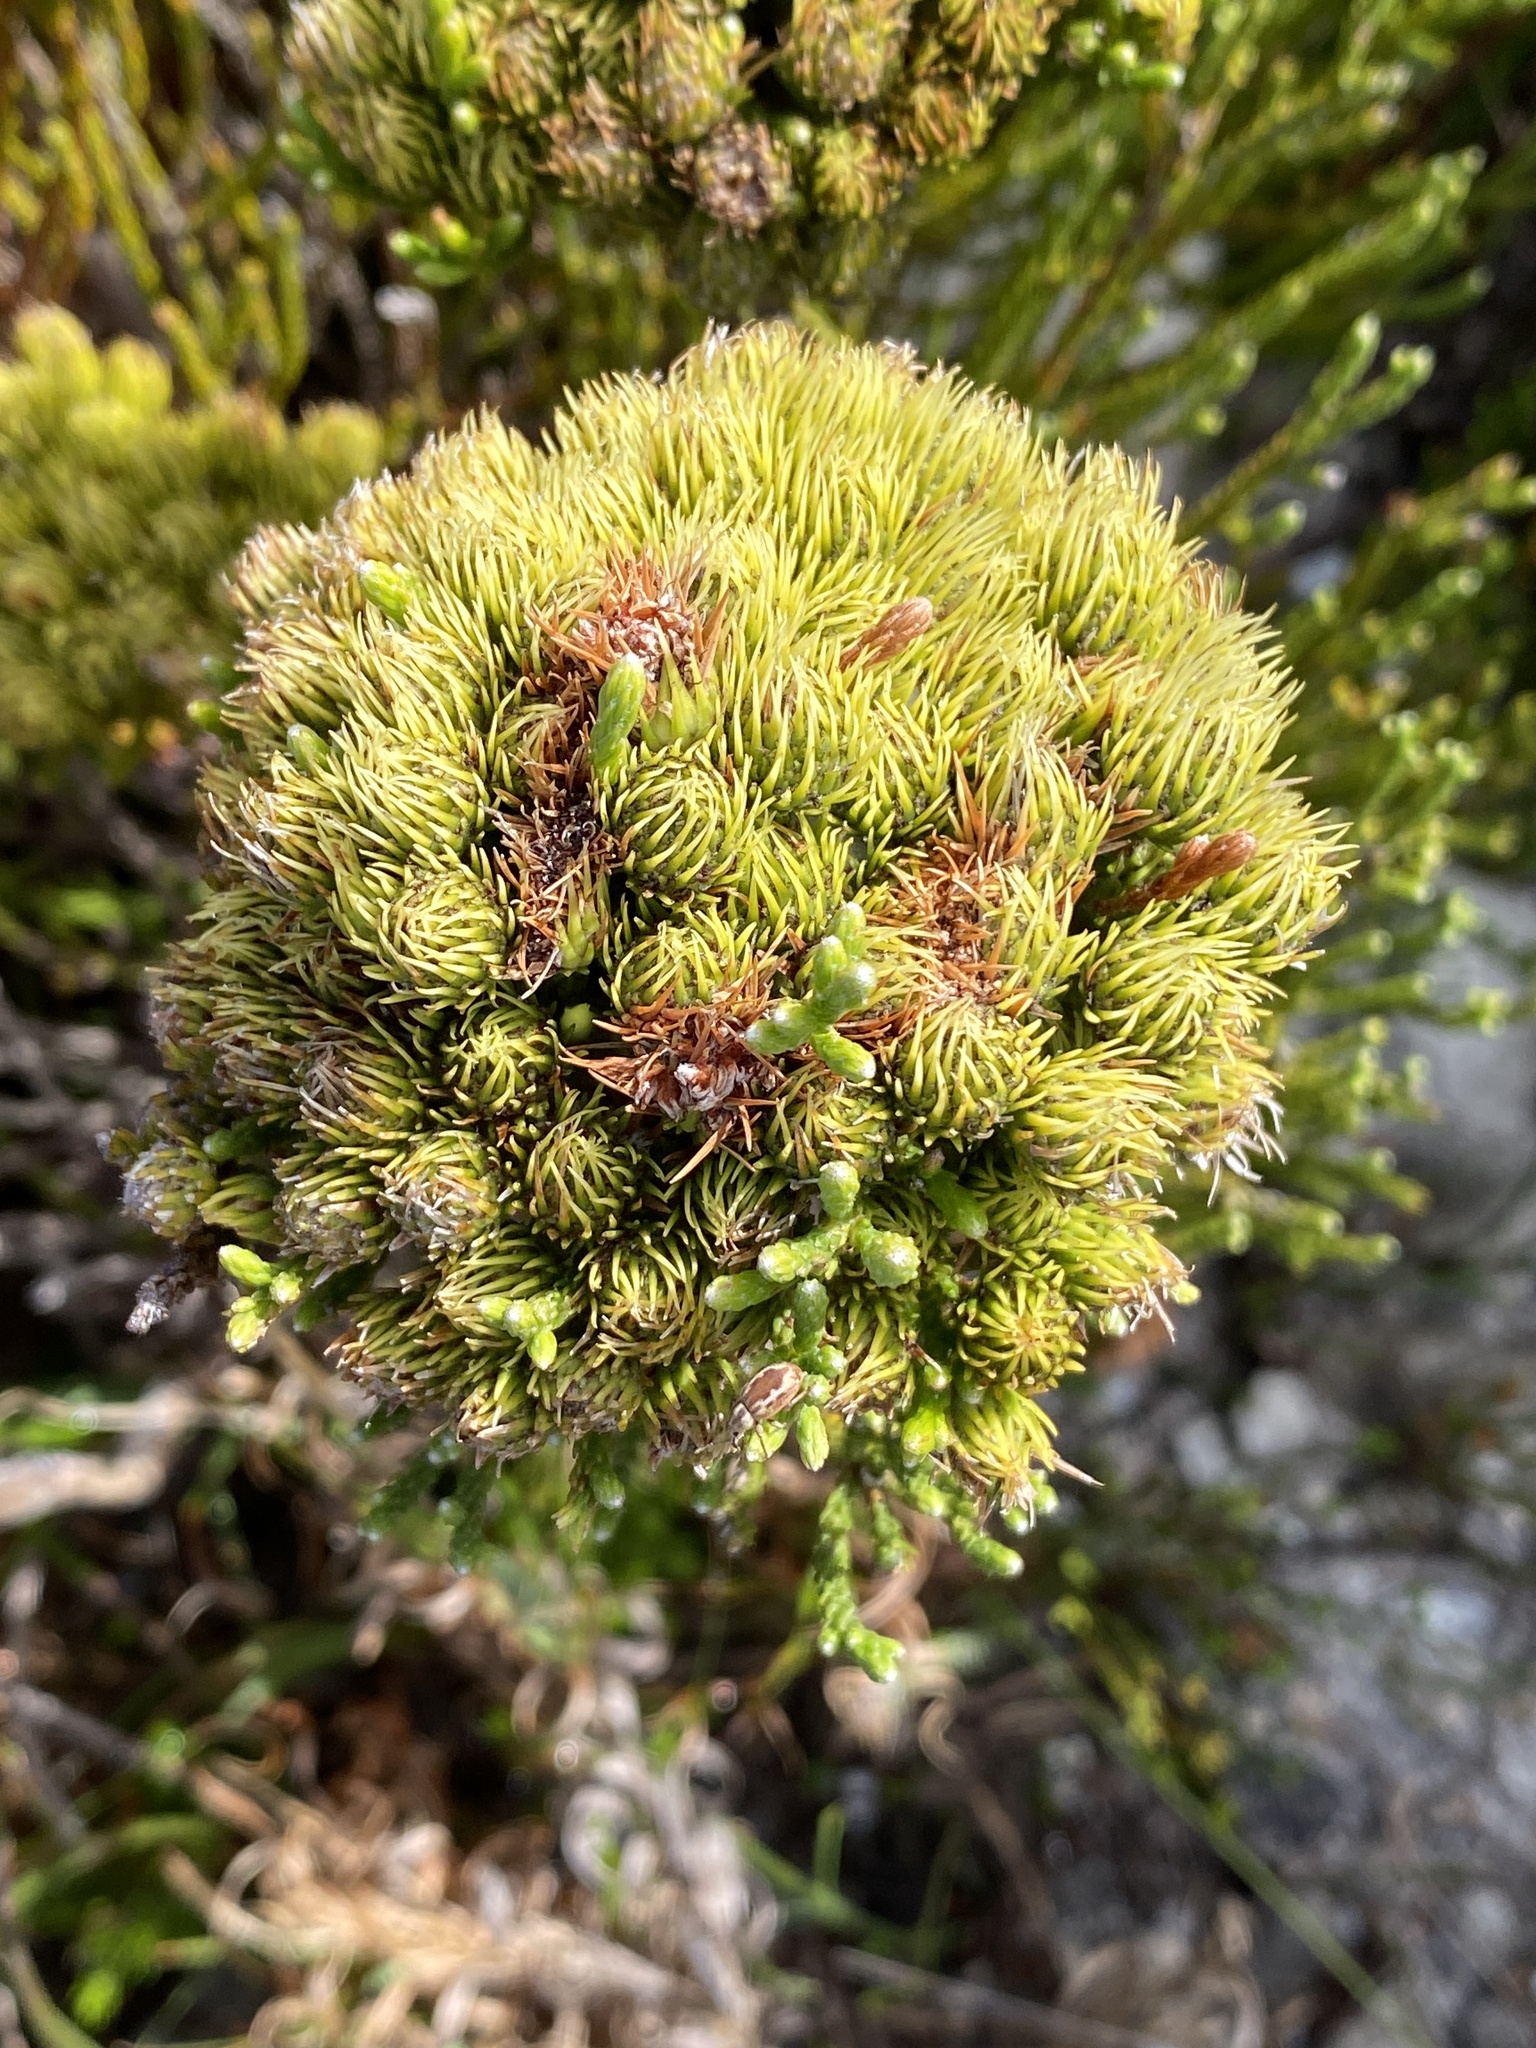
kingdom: Plantae
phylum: Tracheophyta
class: Magnoliopsida
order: Bruniales
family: Bruniaceae
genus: Brunia
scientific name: Brunia paleacea
